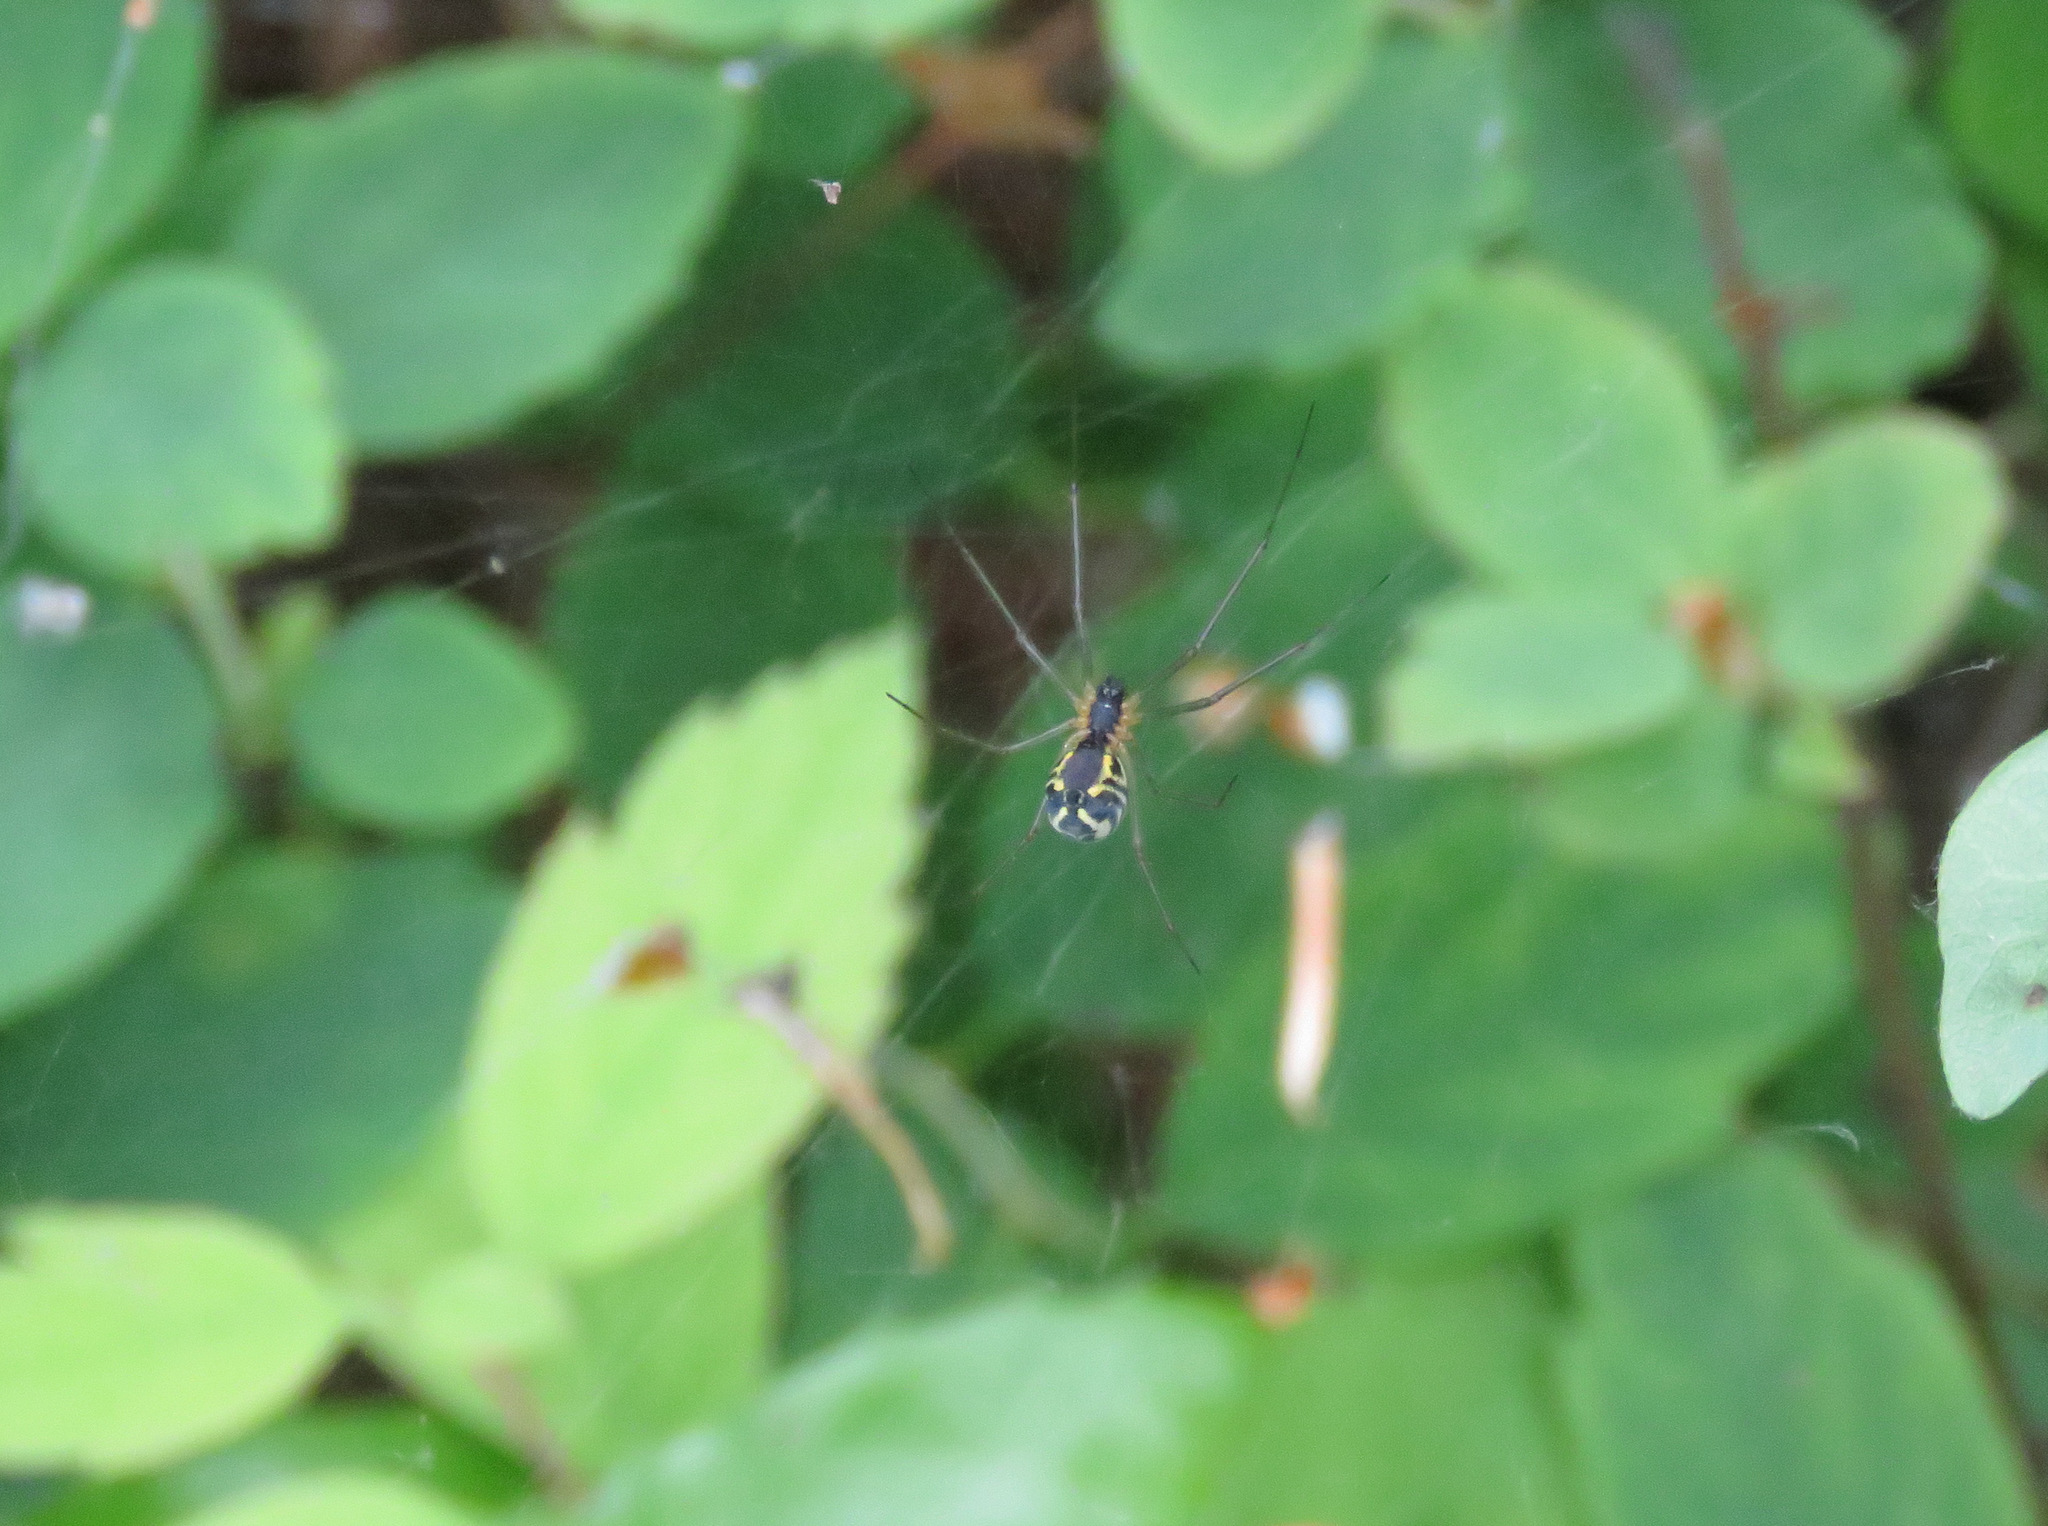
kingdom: Animalia
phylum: Arthropoda
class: Arachnida
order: Araneae
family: Linyphiidae
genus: Neriene
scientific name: Neriene radiata
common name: Filmy dome spider
